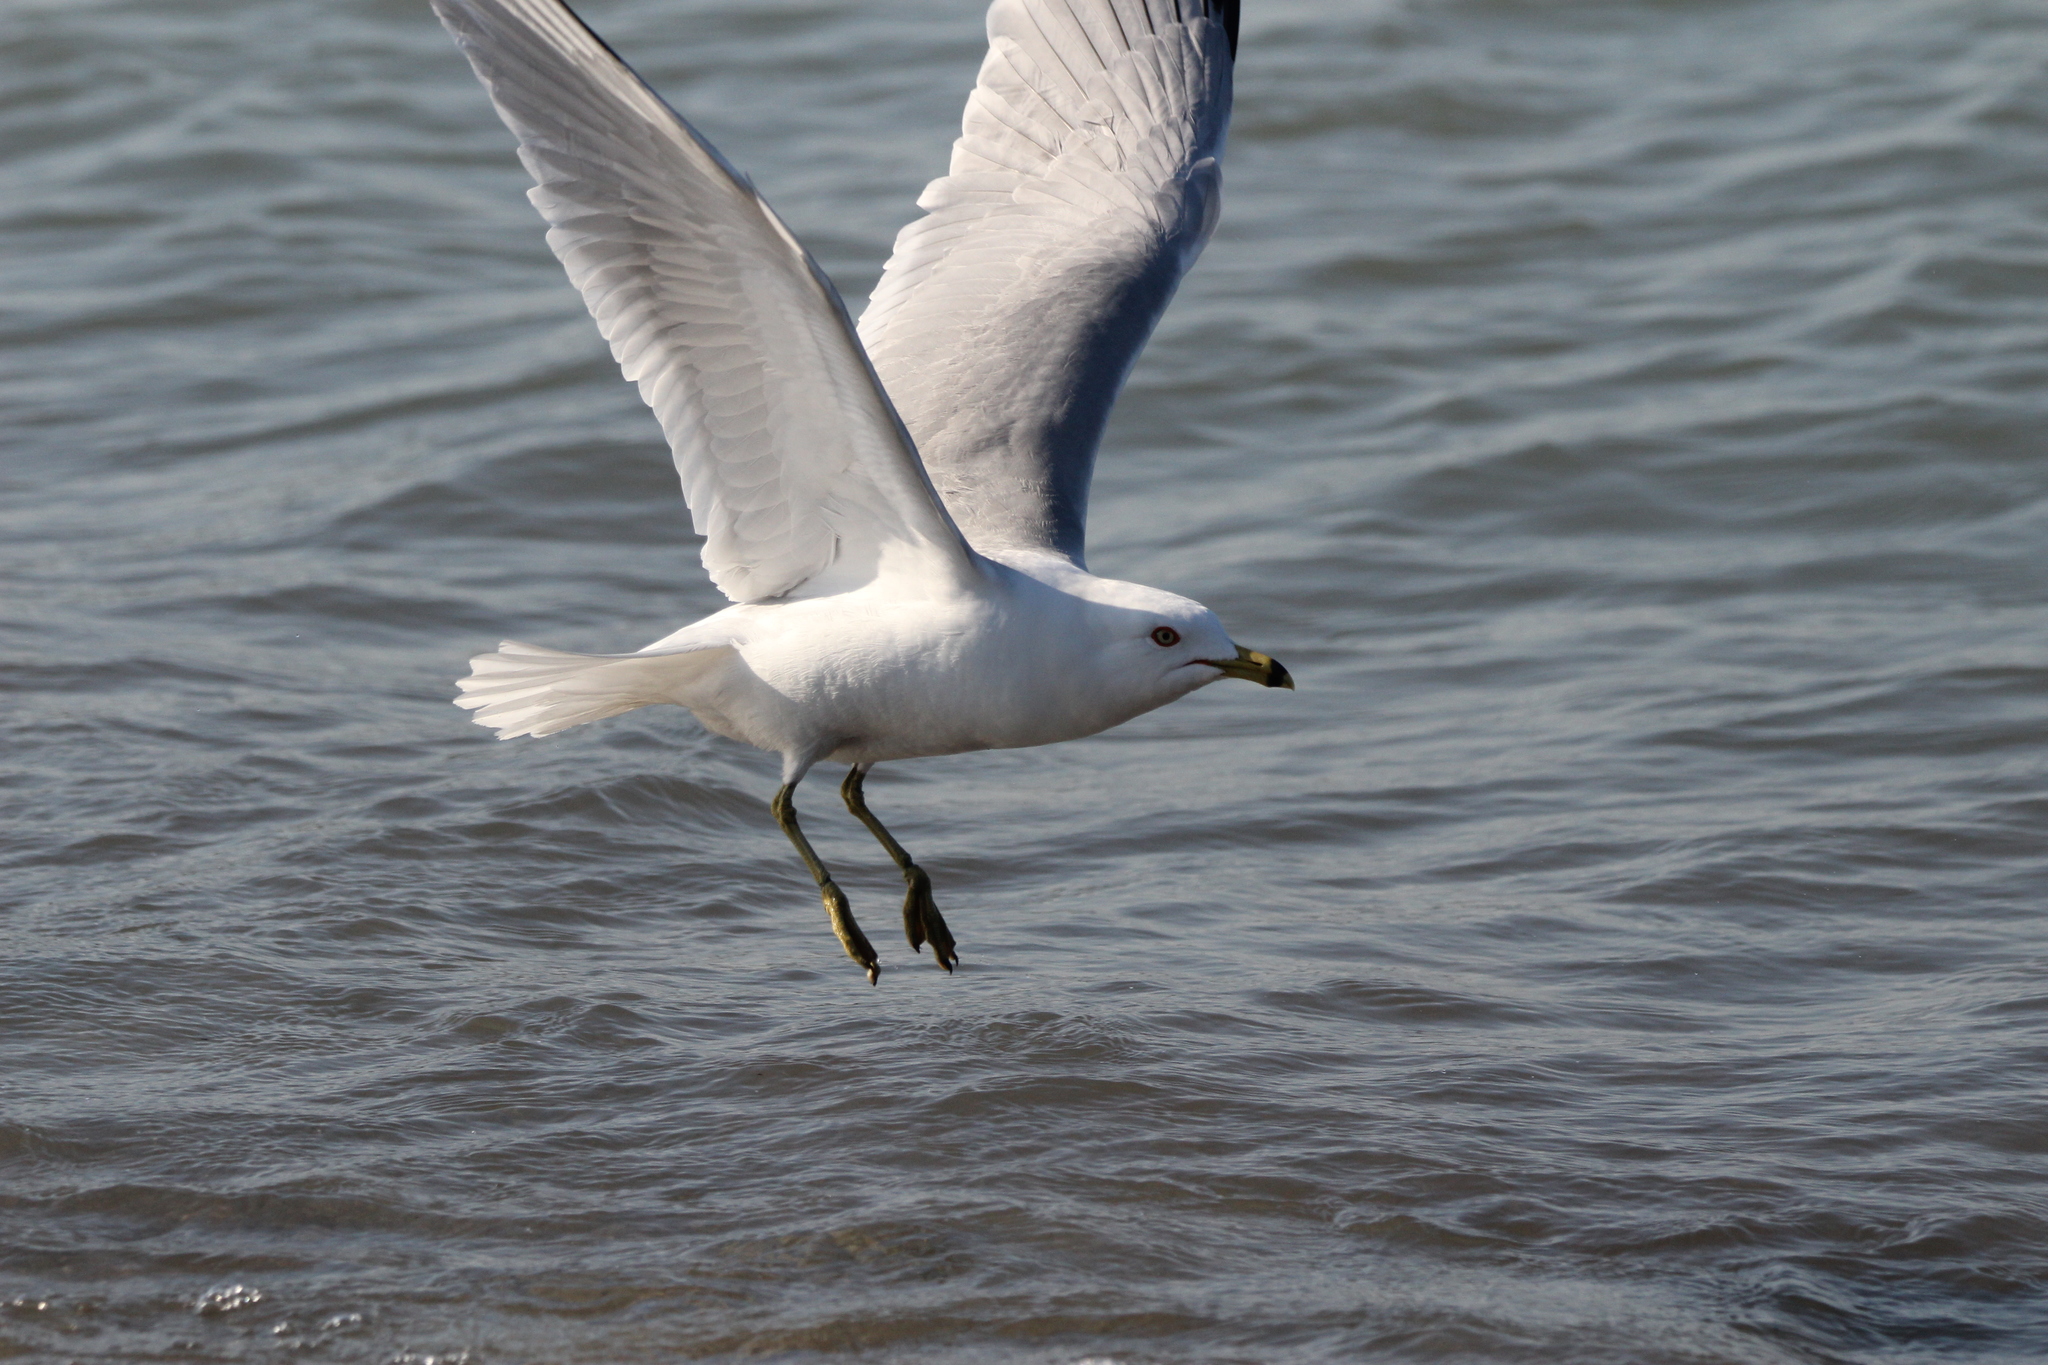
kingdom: Animalia
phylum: Chordata
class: Aves
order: Charadriiformes
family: Laridae
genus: Larus
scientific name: Larus delawarensis
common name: Ring-billed gull
